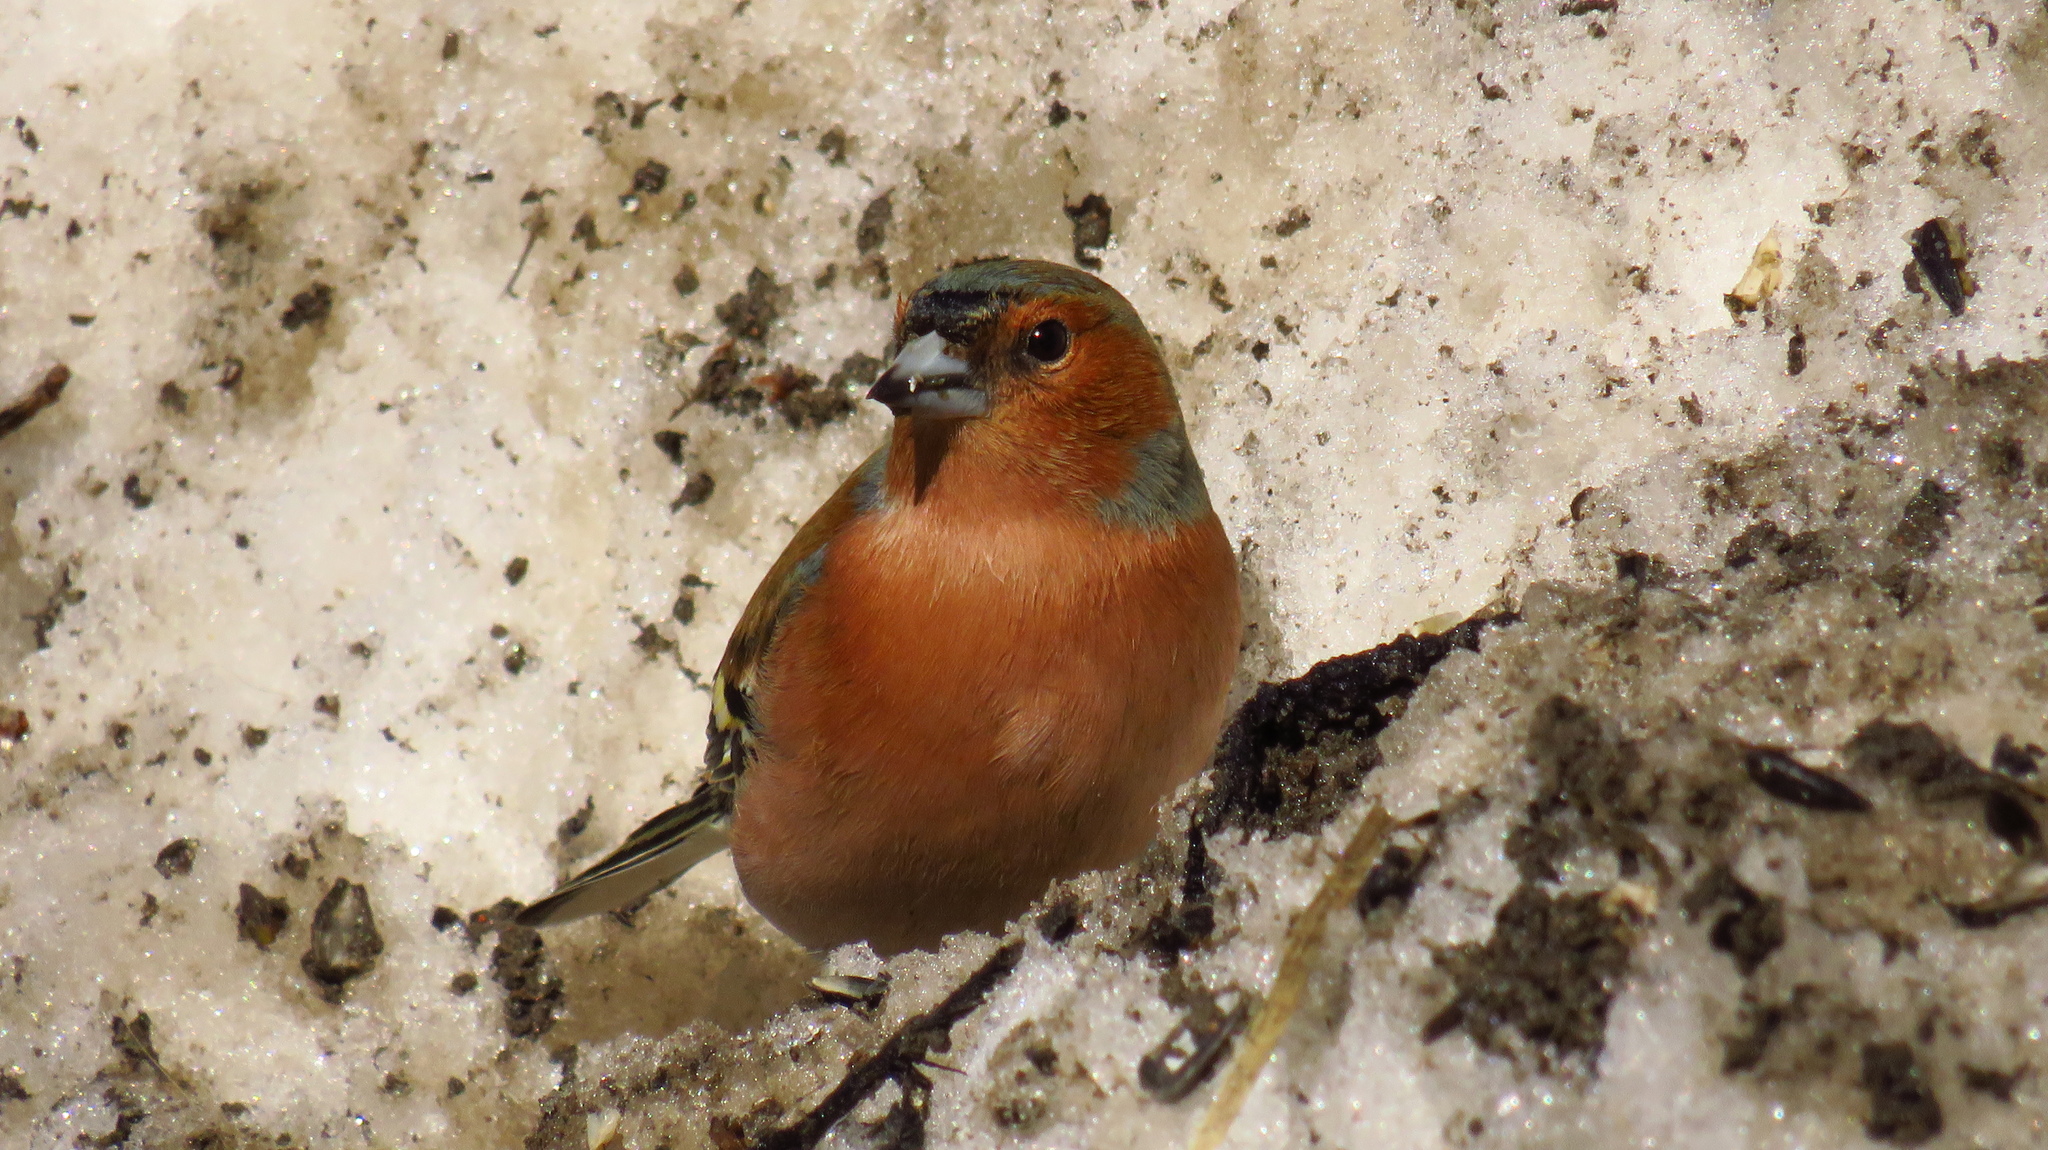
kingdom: Animalia
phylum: Chordata
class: Aves
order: Passeriformes
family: Fringillidae
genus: Fringilla
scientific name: Fringilla coelebs
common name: Common chaffinch
